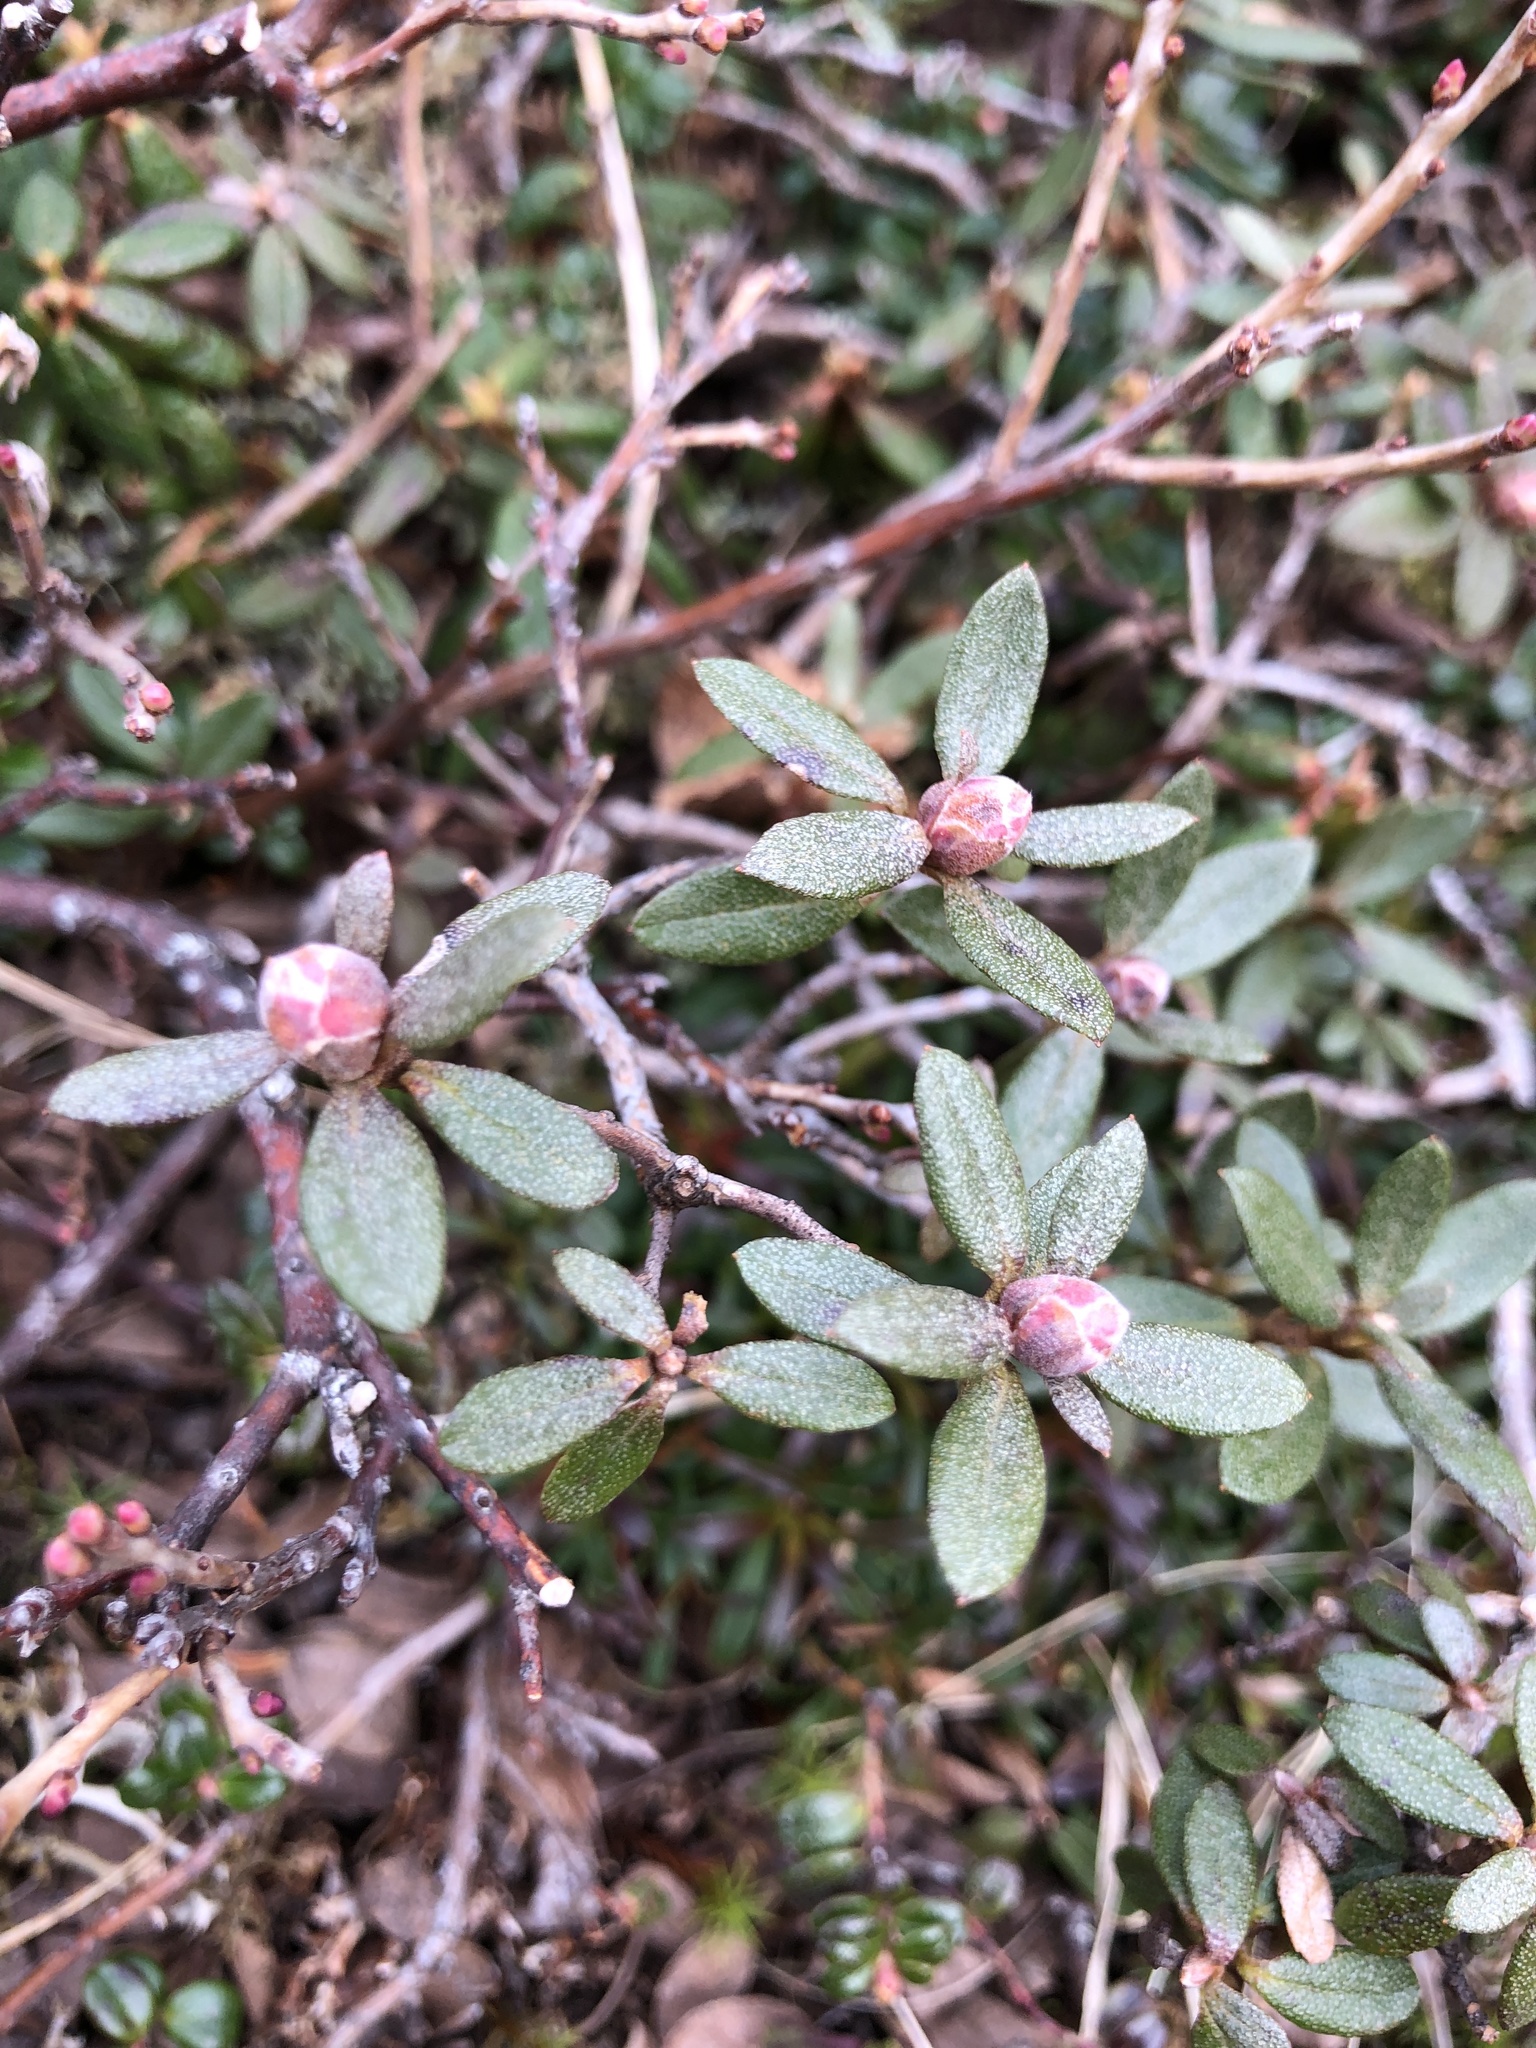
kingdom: Plantae
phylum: Tracheophyta
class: Magnoliopsida
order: Ericales
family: Ericaceae
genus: Rhododendron
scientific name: Rhododendron lapponicum
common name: Lapland rhododendron
